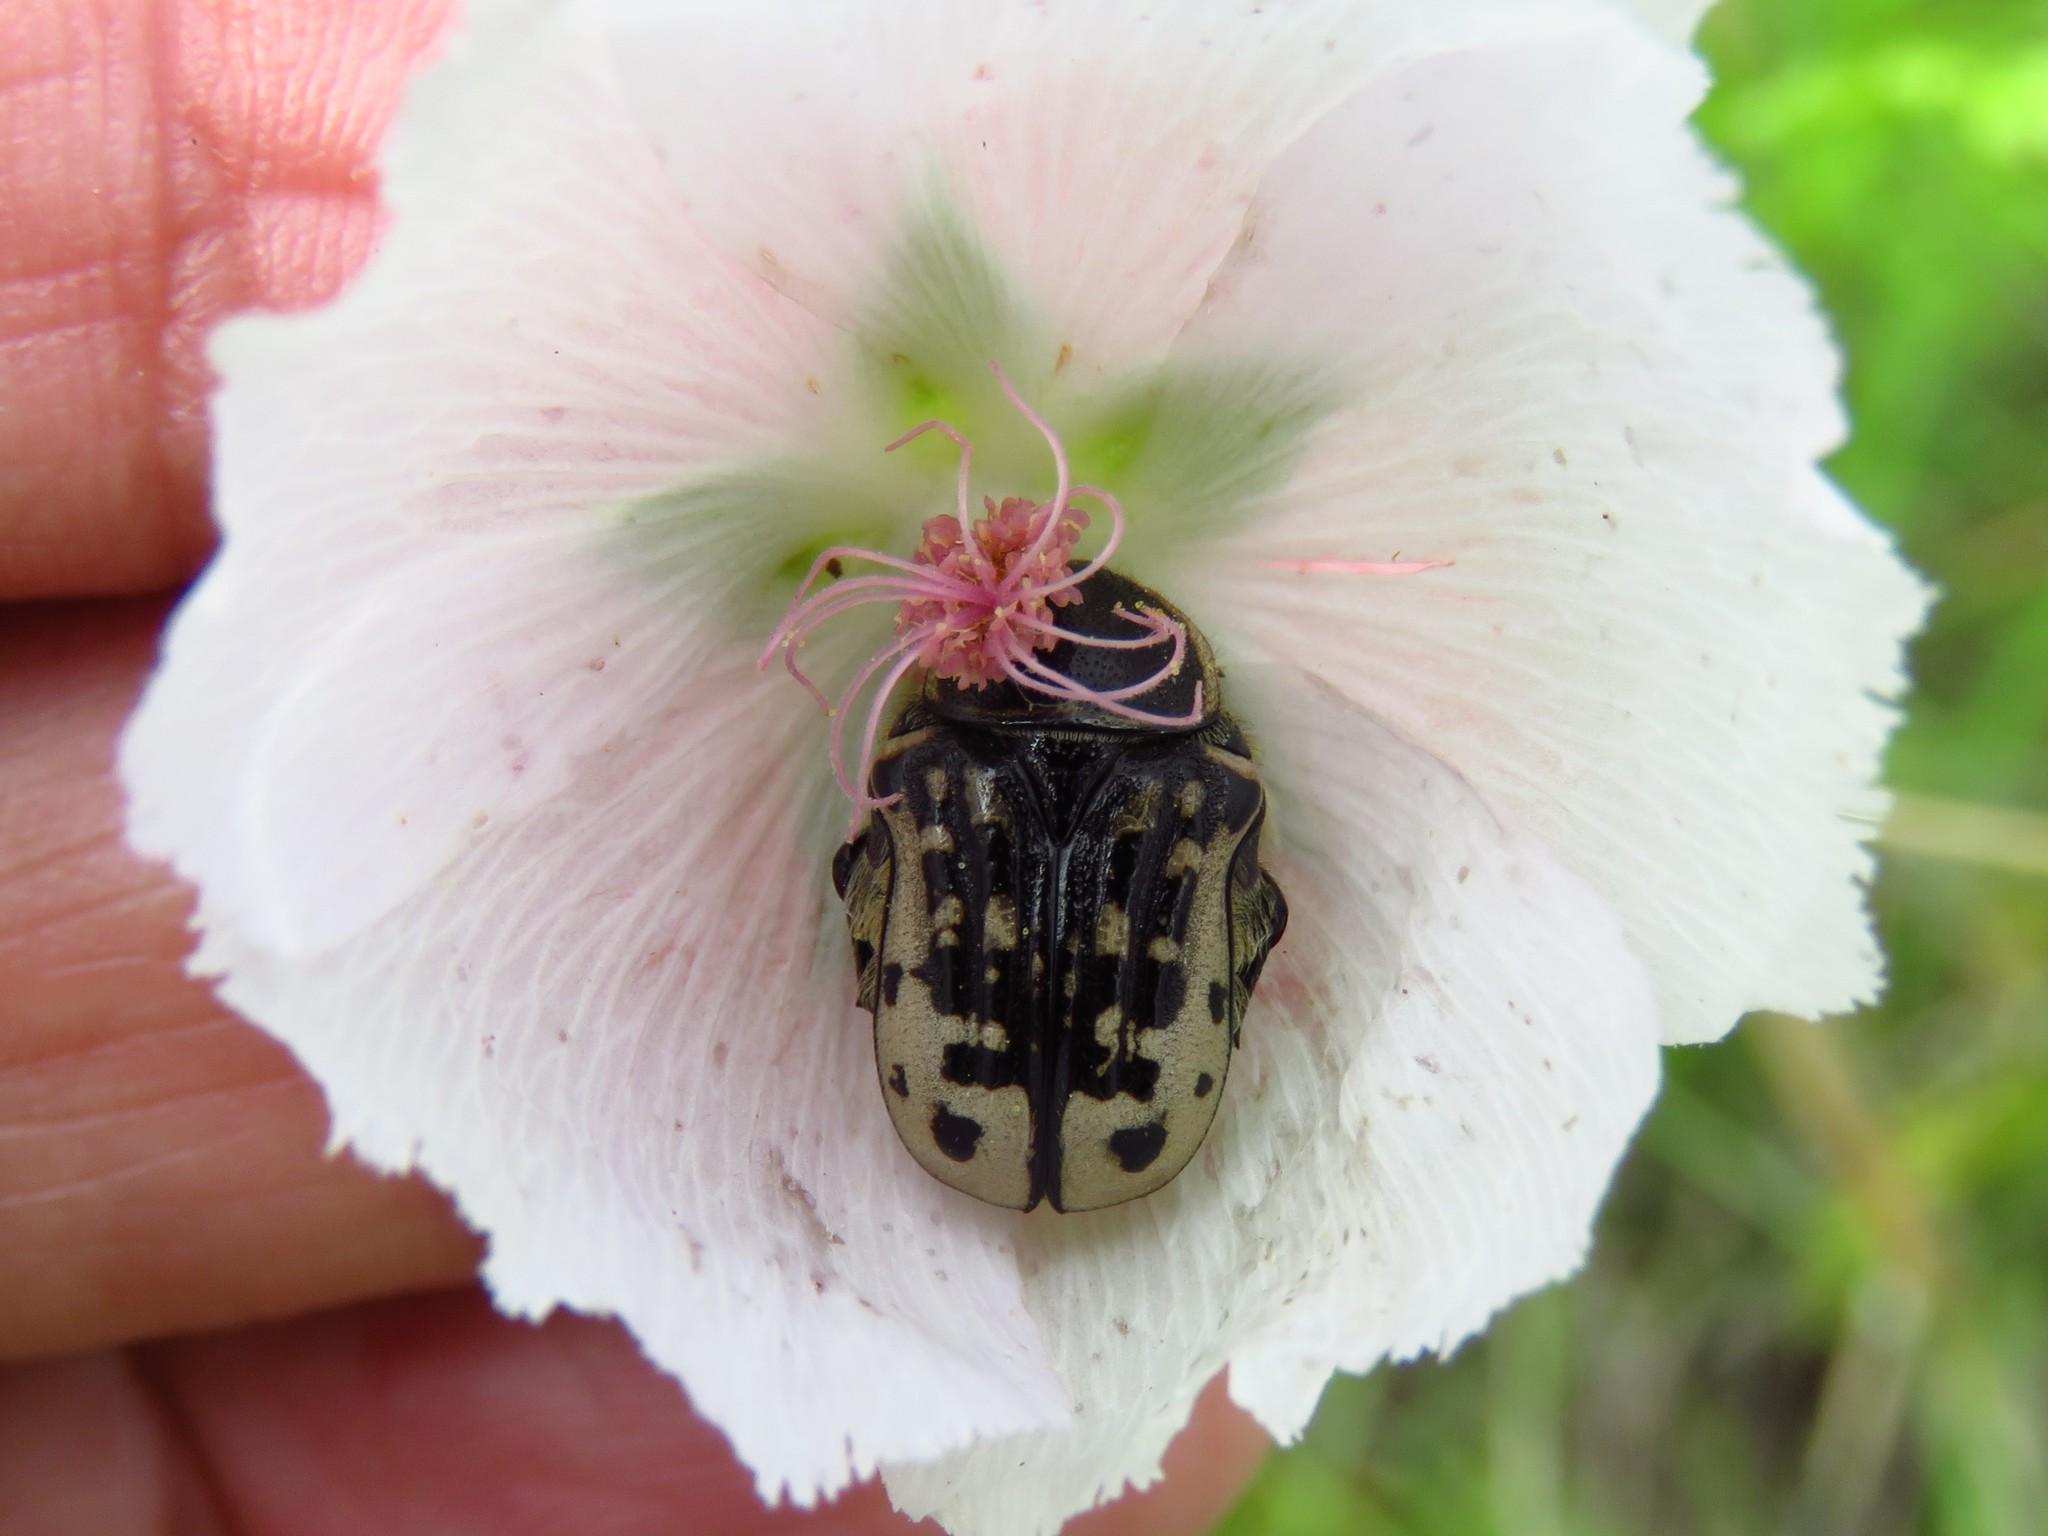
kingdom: Animalia
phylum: Arthropoda
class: Insecta
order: Coleoptera
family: Scarabaeidae
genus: Euphoria
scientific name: Euphoria kernii
